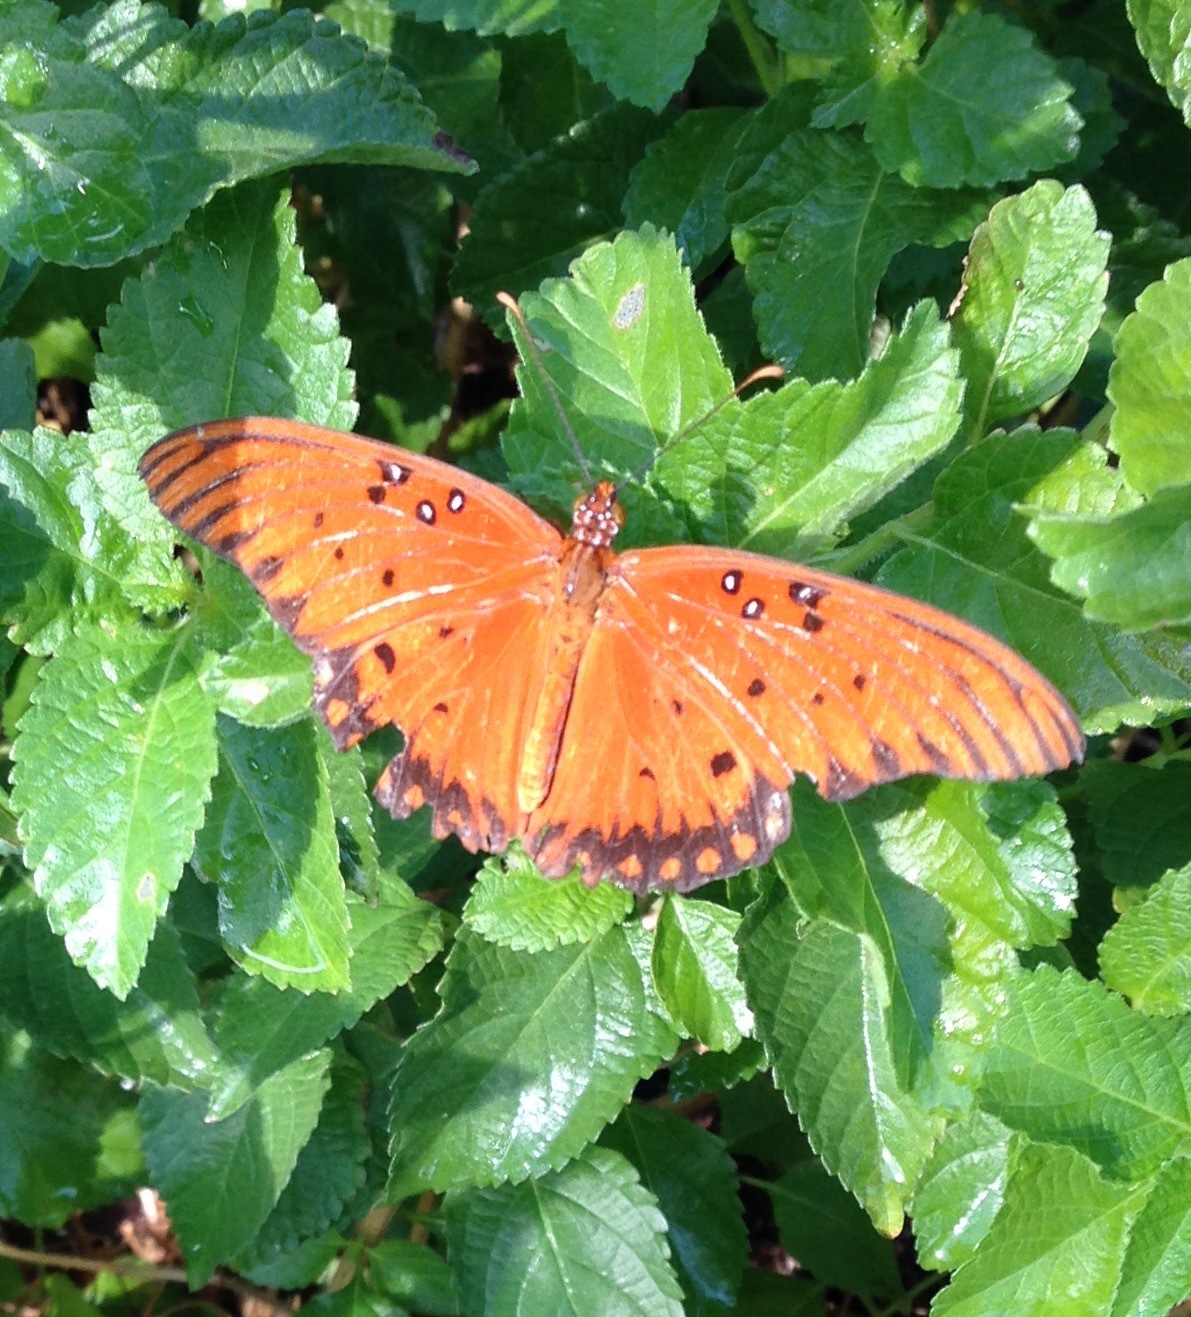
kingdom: Animalia
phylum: Arthropoda
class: Insecta
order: Lepidoptera
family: Nymphalidae
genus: Dione
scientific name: Dione vanillae
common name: Gulf fritillary
